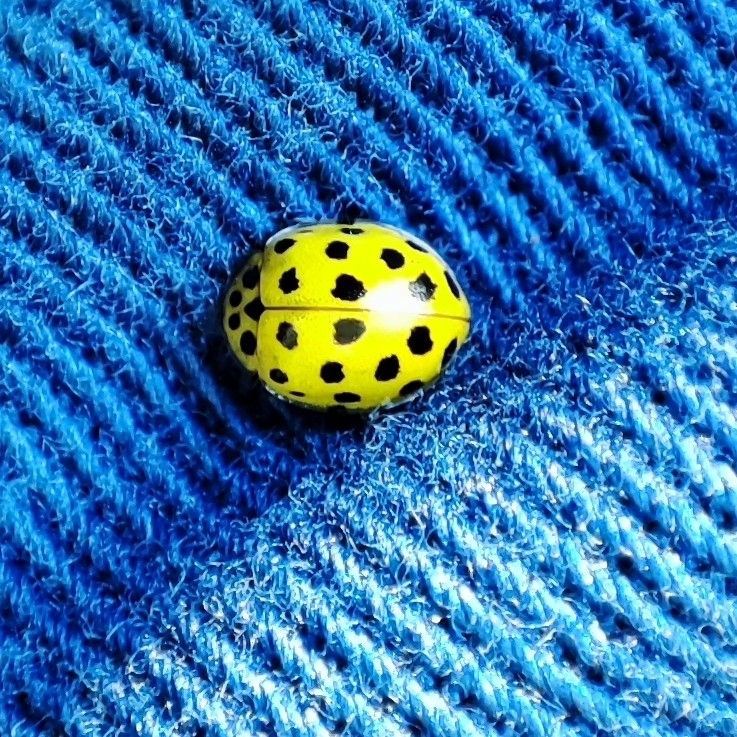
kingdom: Animalia
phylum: Arthropoda
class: Insecta
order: Coleoptera
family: Coccinellidae
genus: Psyllobora
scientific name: Psyllobora vigintiduopunctata
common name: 22-spot ladybird
